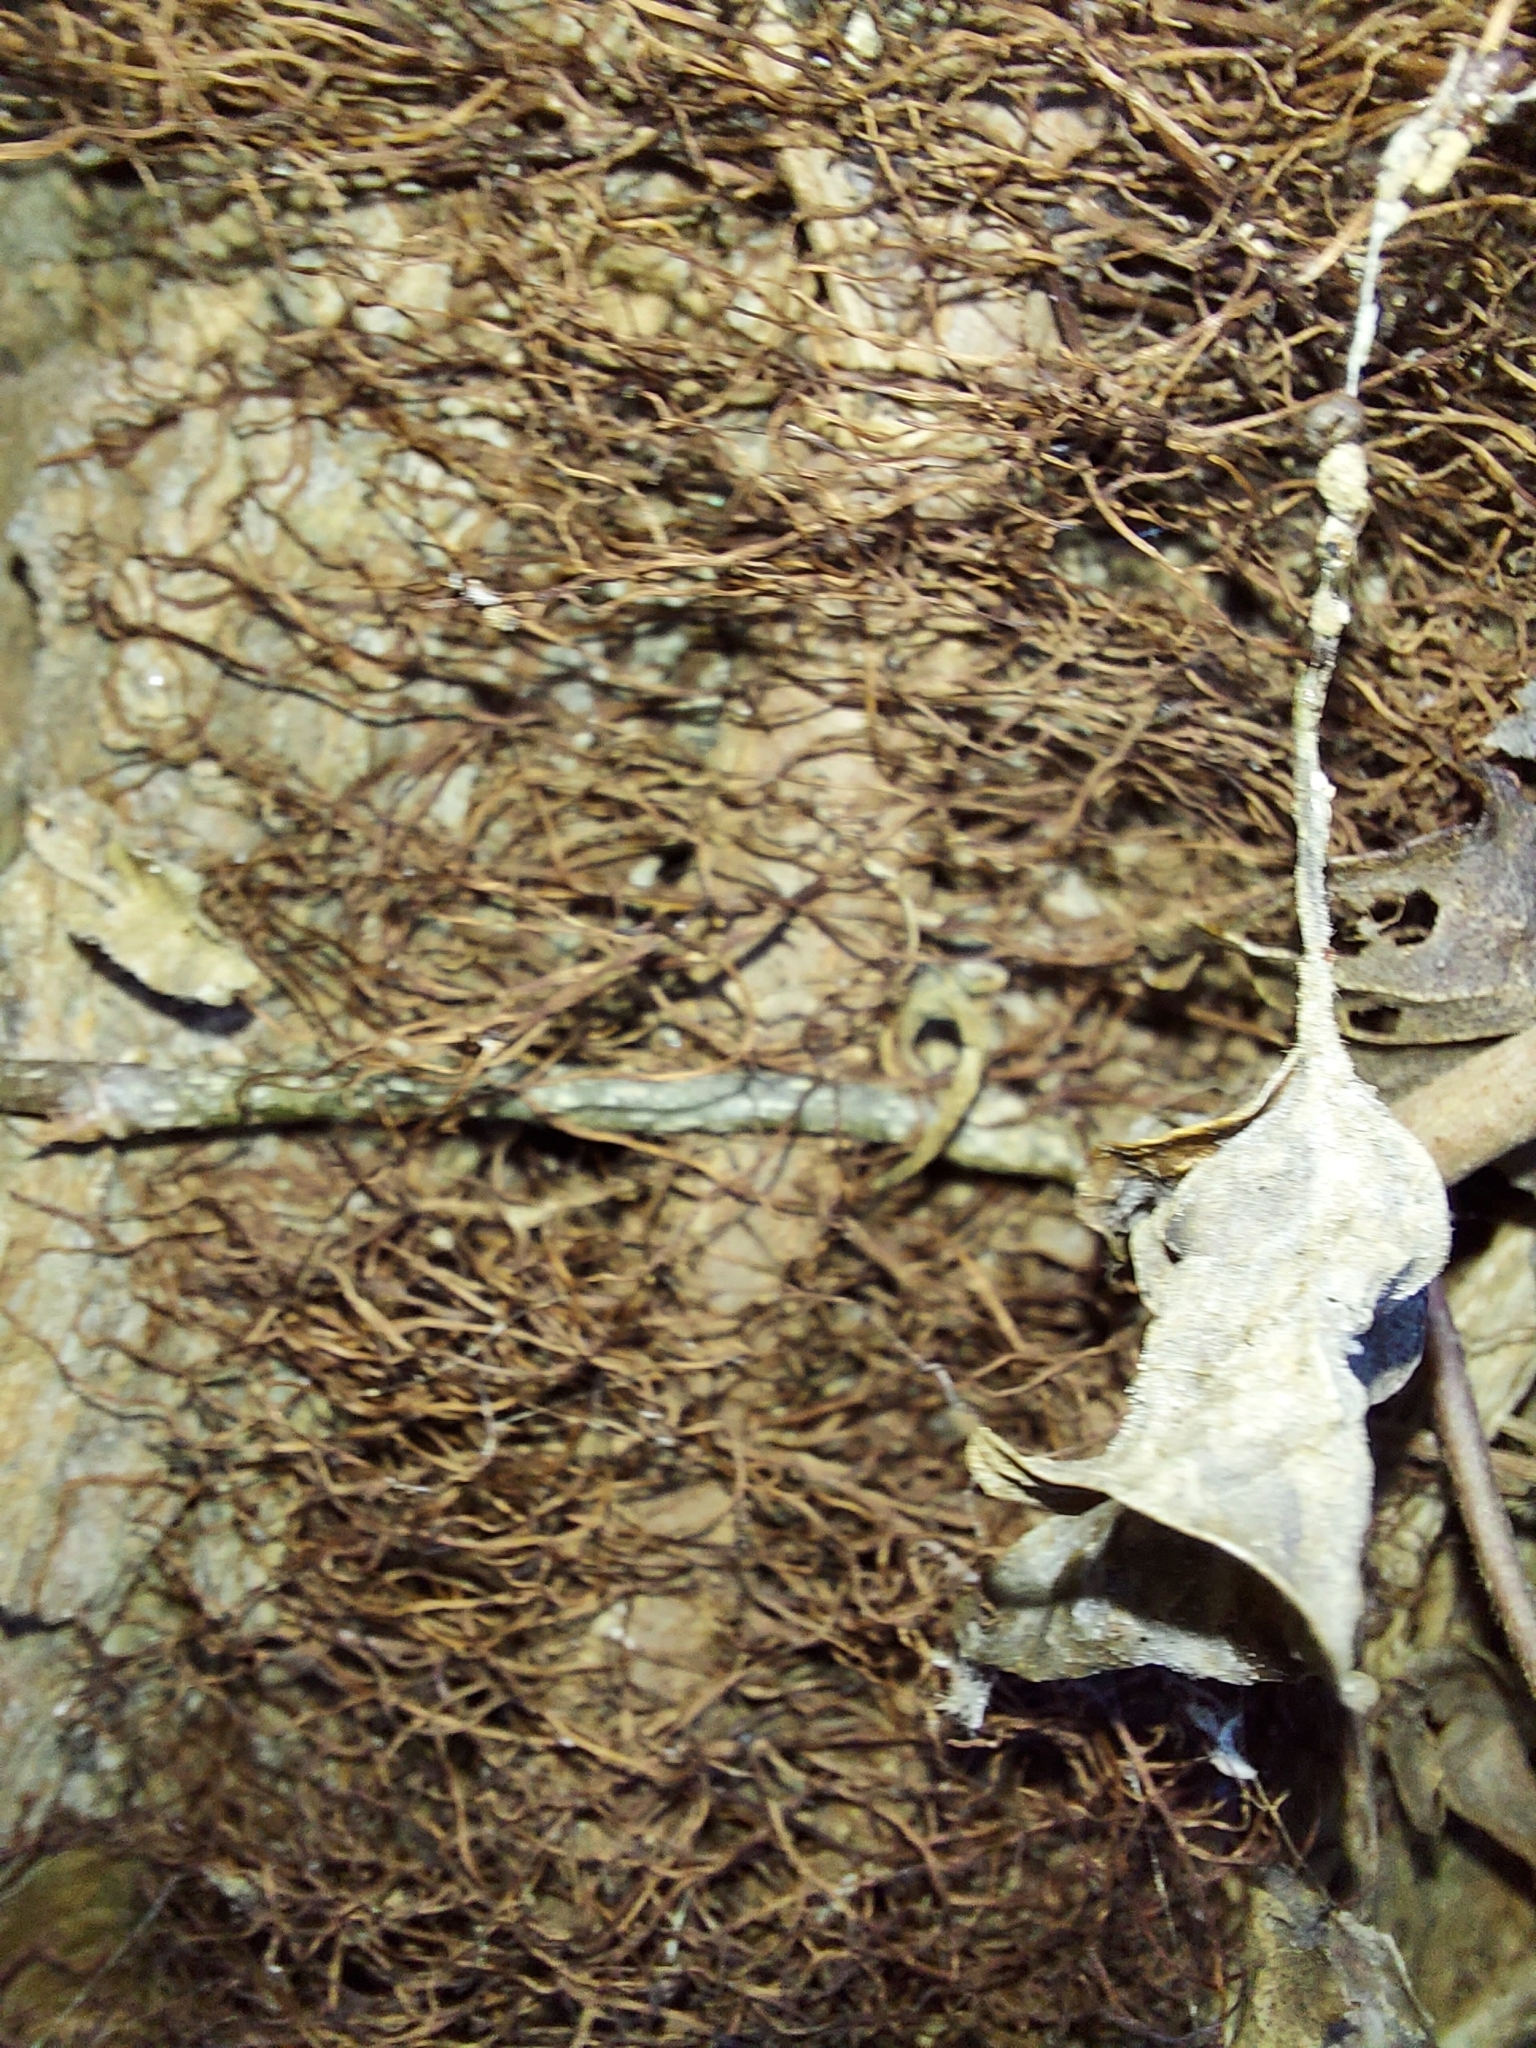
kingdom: Plantae
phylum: Tracheophyta
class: Magnoliopsida
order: Sapindales
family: Anacardiaceae
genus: Toxicodendron
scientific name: Toxicodendron radicans
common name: Poison ivy
